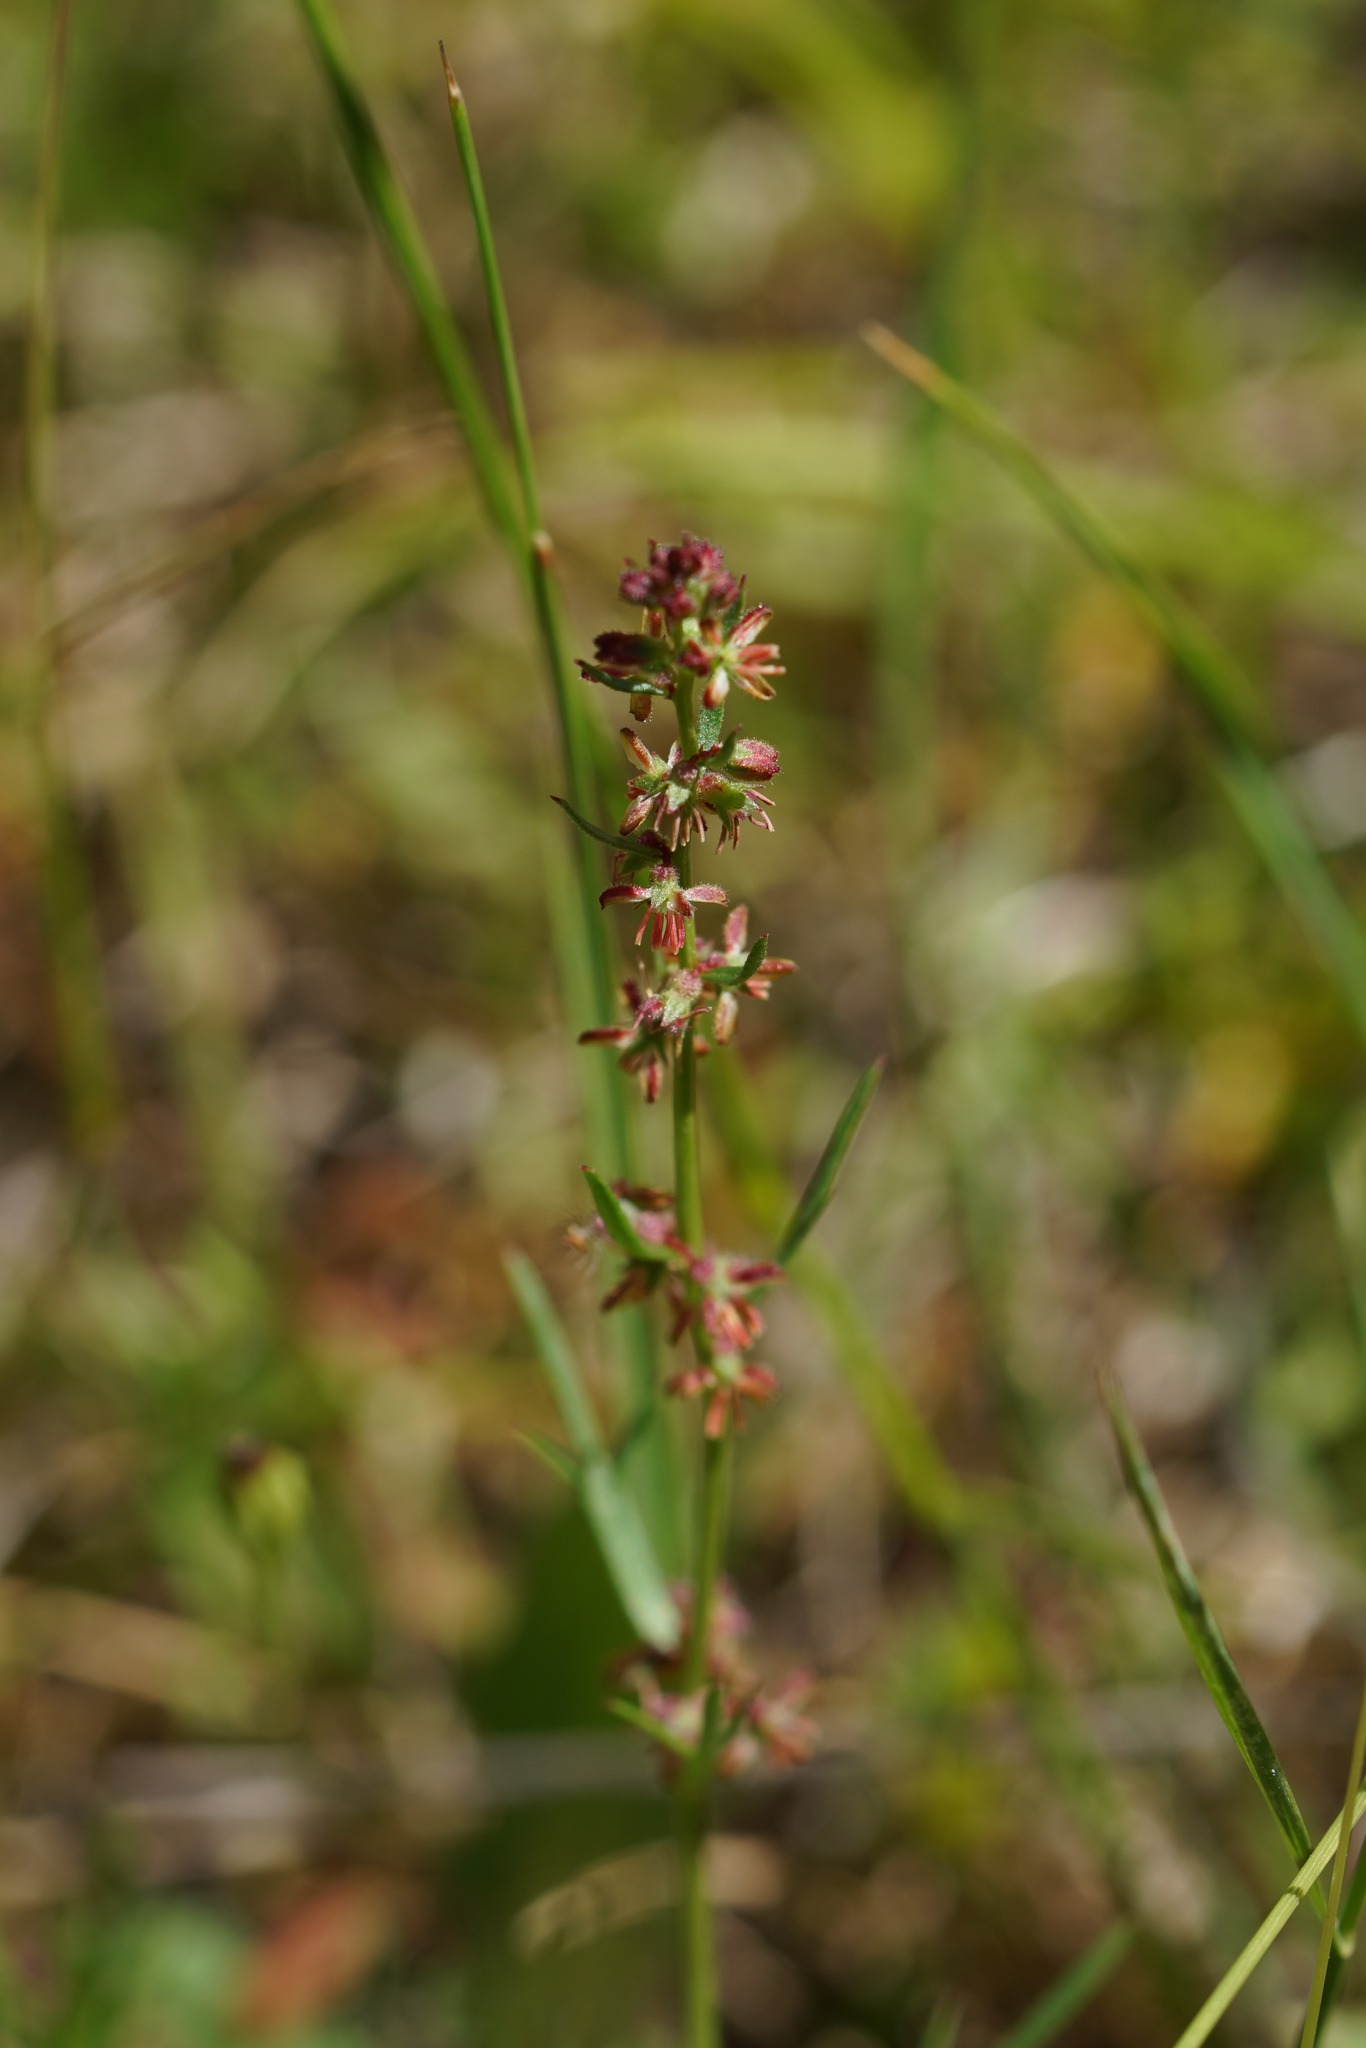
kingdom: Plantae
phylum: Tracheophyta
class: Magnoliopsida
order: Saxifragales
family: Haloragaceae
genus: Haloragis
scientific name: Haloragis heterophylla
